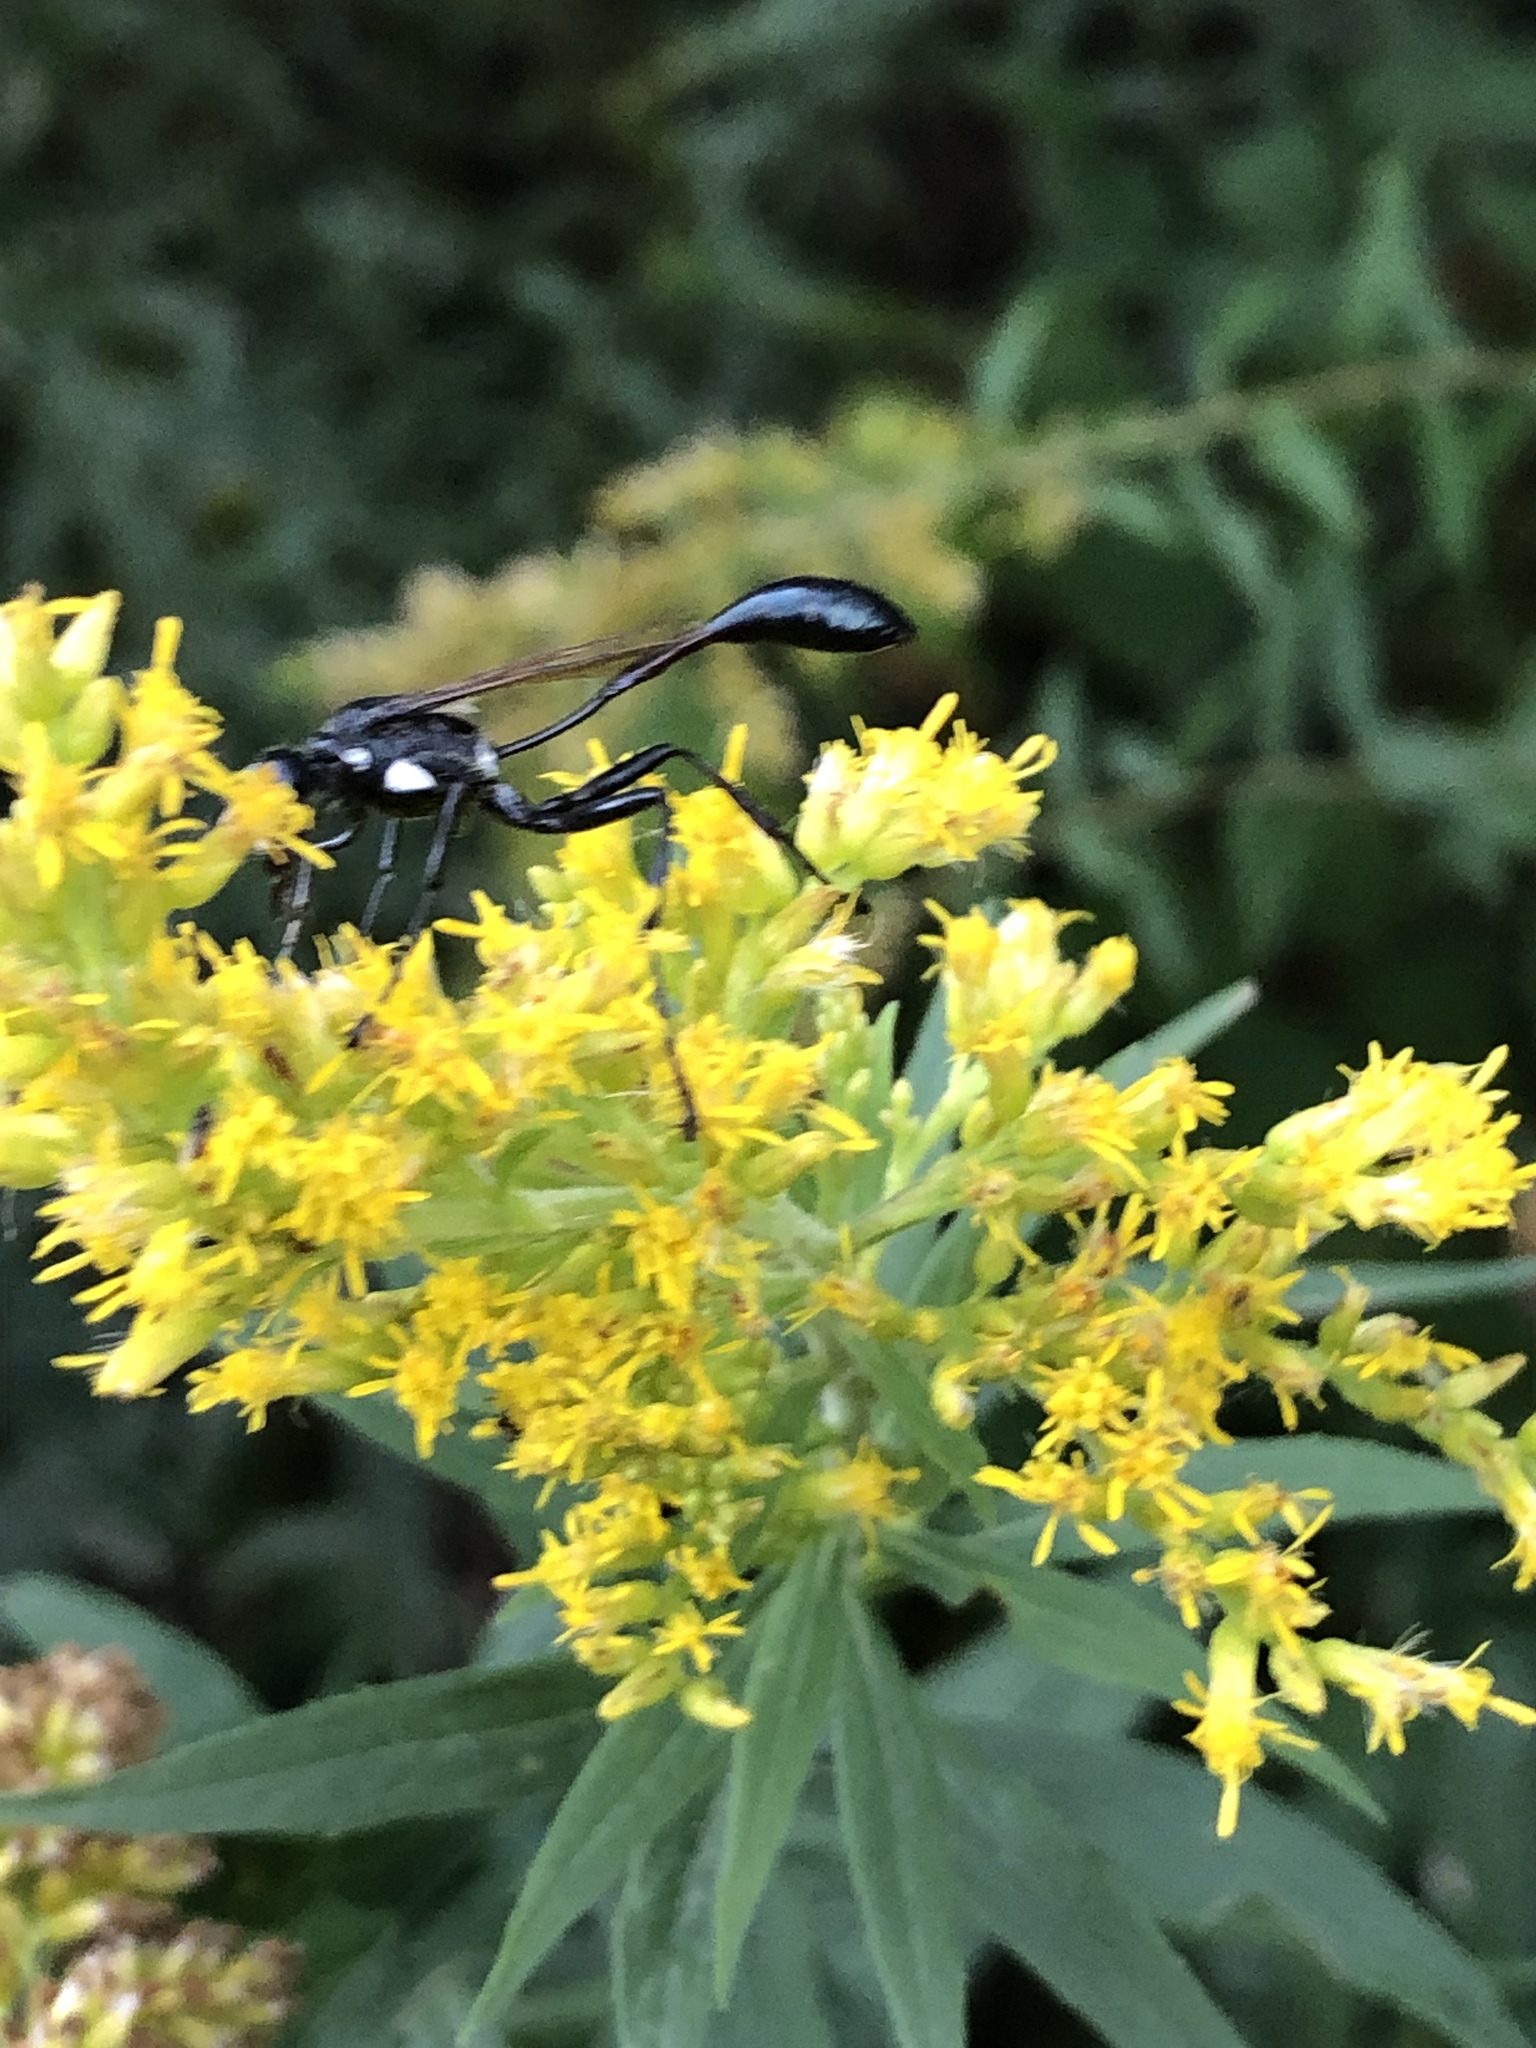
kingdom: Animalia
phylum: Arthropoda
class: Insecta
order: Hymenoptera
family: Sphecidae
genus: Eremnophila
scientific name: Eremnophila aureonotata
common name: Gold-marked thread-waisted wasp
